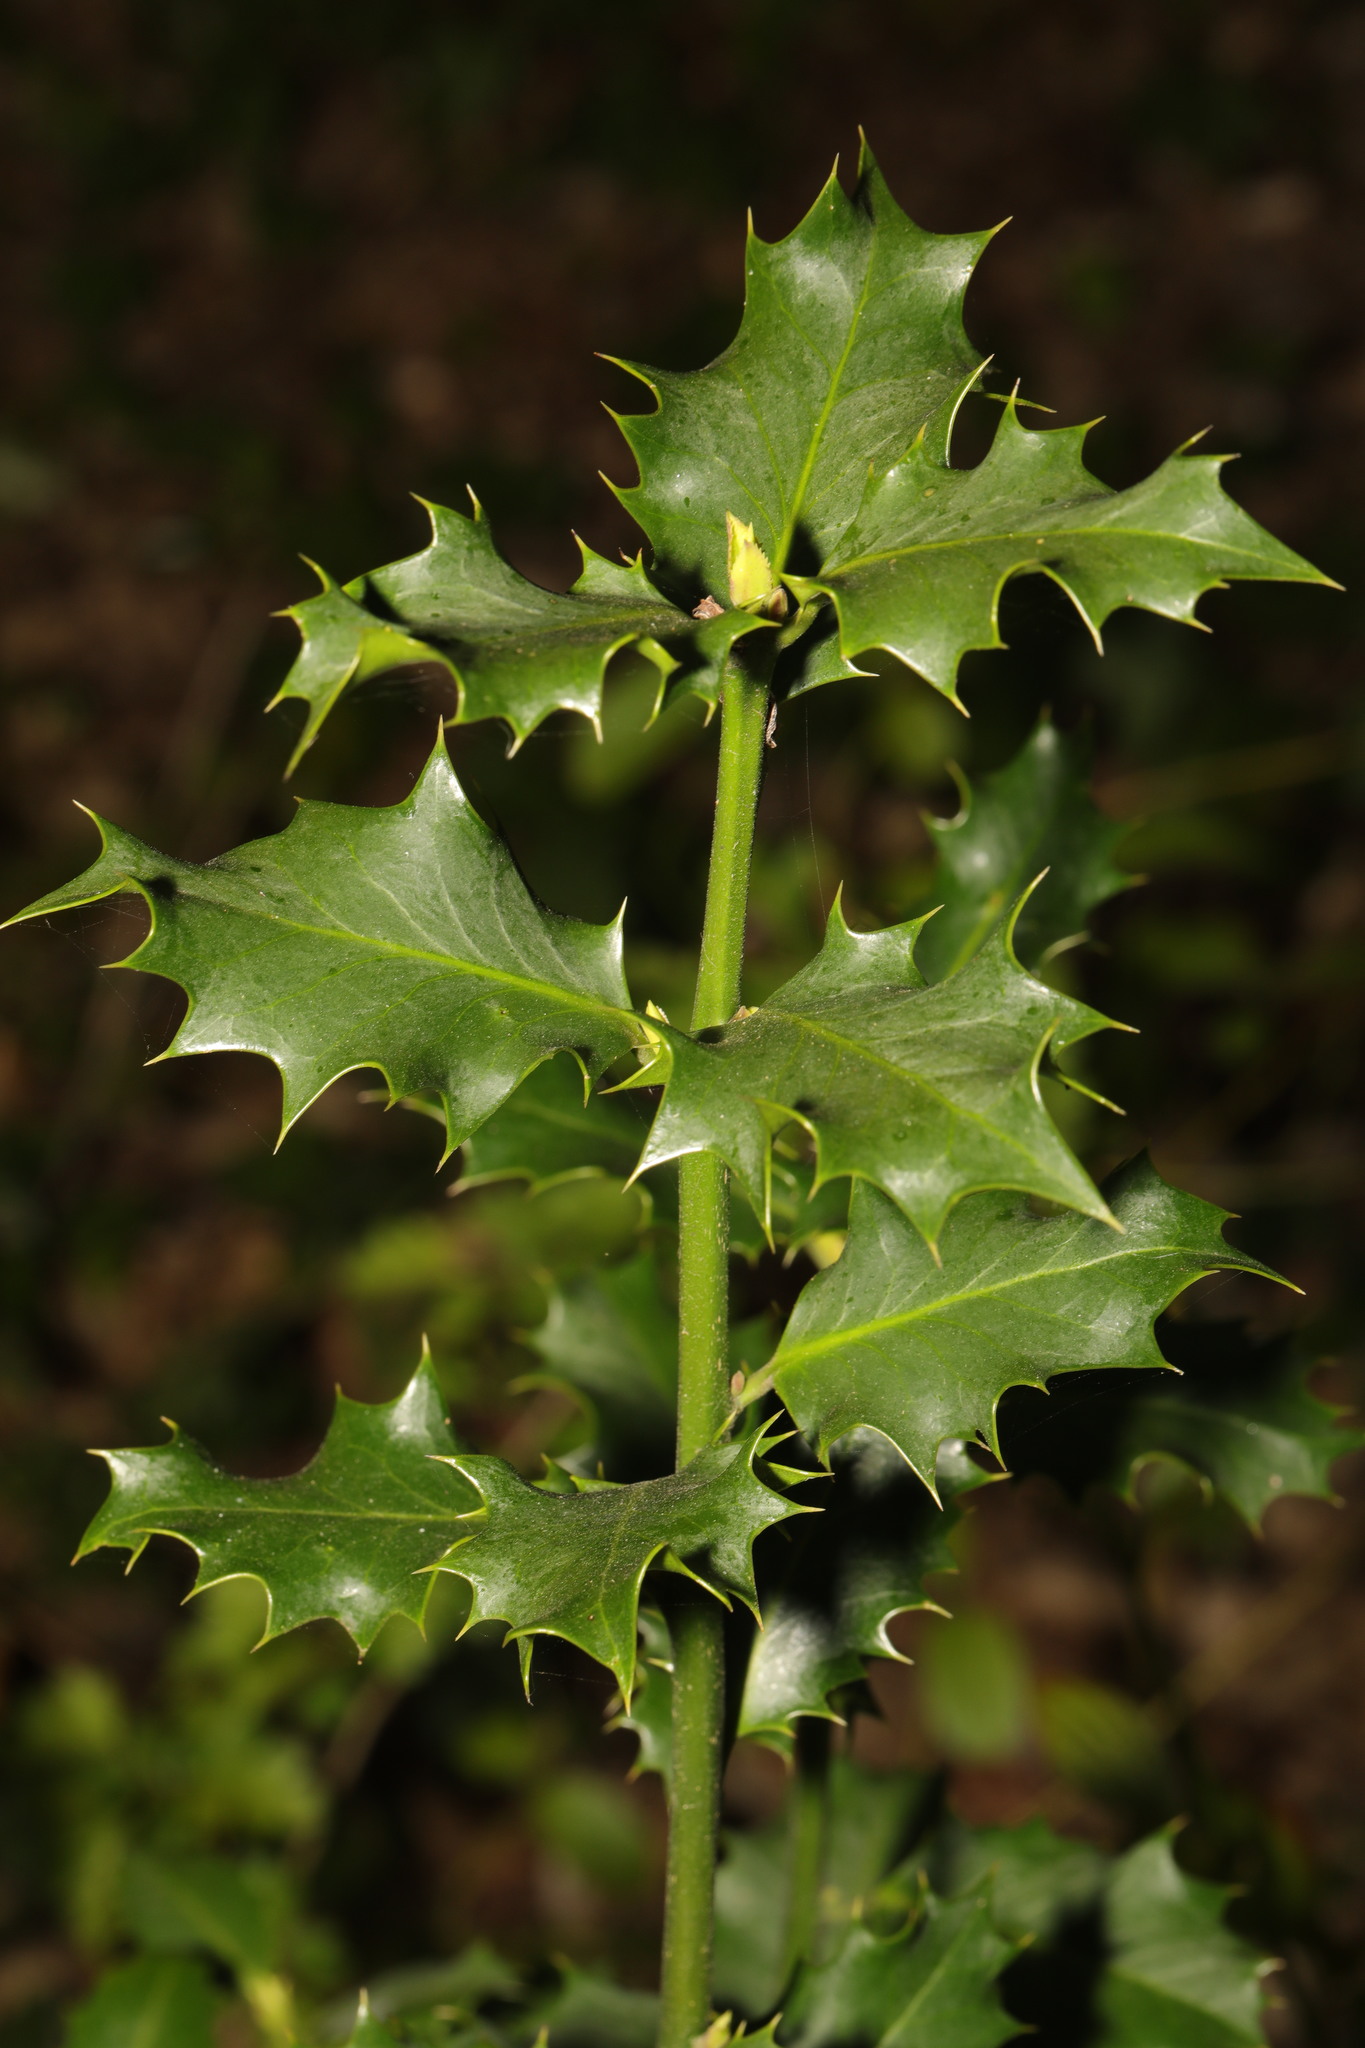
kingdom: Plantae
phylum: Tracheophyta
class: Magnoliopsida
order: Aquifoliales
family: Aquifoliaceae
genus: Ilex
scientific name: Ilex aquifolium
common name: English holly
